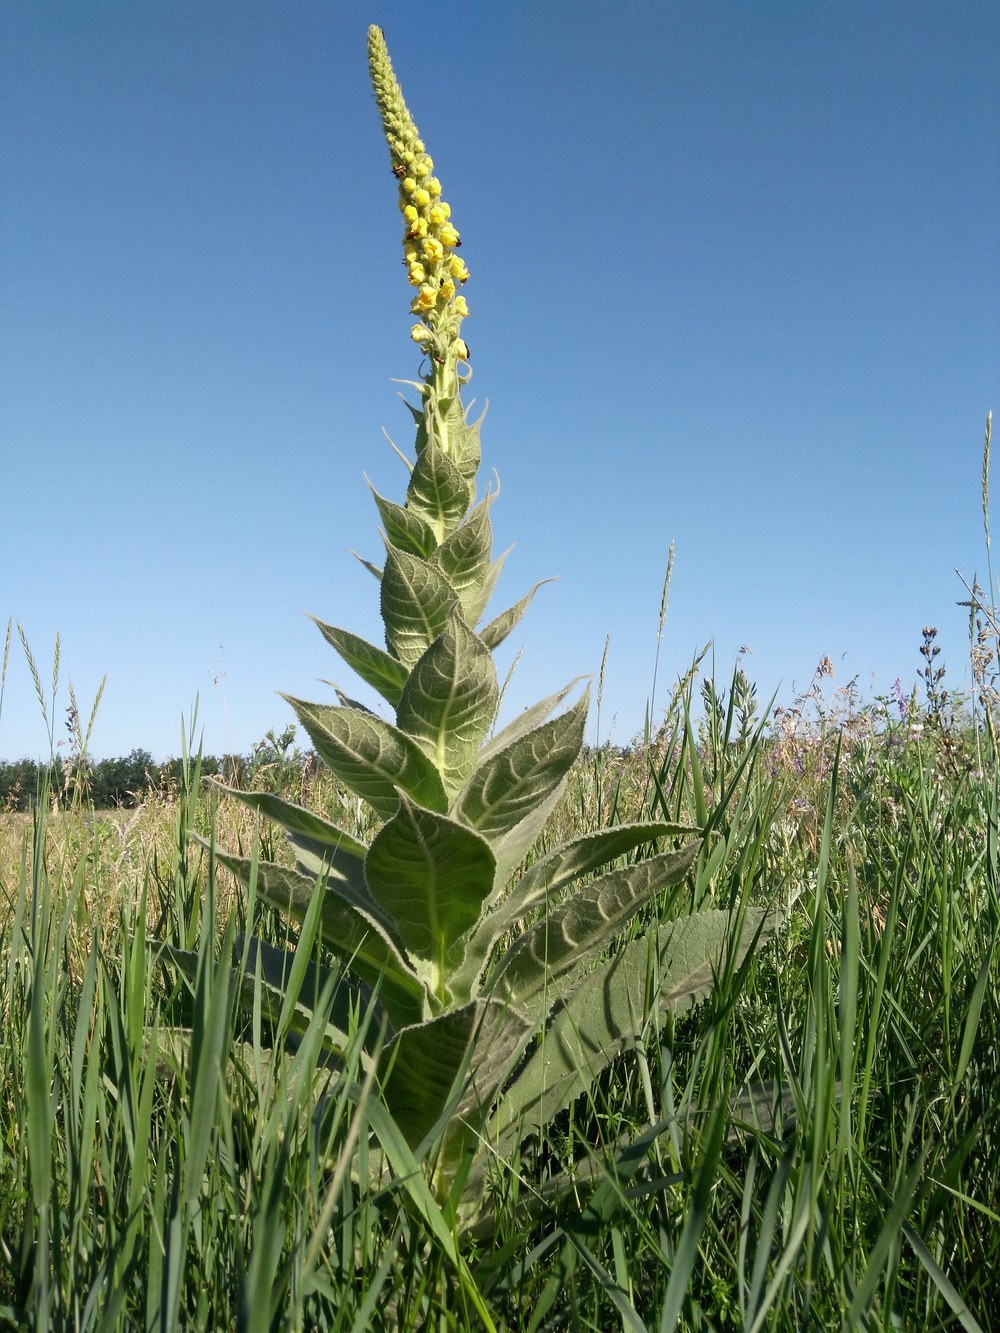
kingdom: Plantae
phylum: Tracheophyta
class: Magnoliopsida
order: Lamiales
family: Scrophulariaceae
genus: Verbascum
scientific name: Verbascum densiflorum
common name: Dense-flowered mullein
